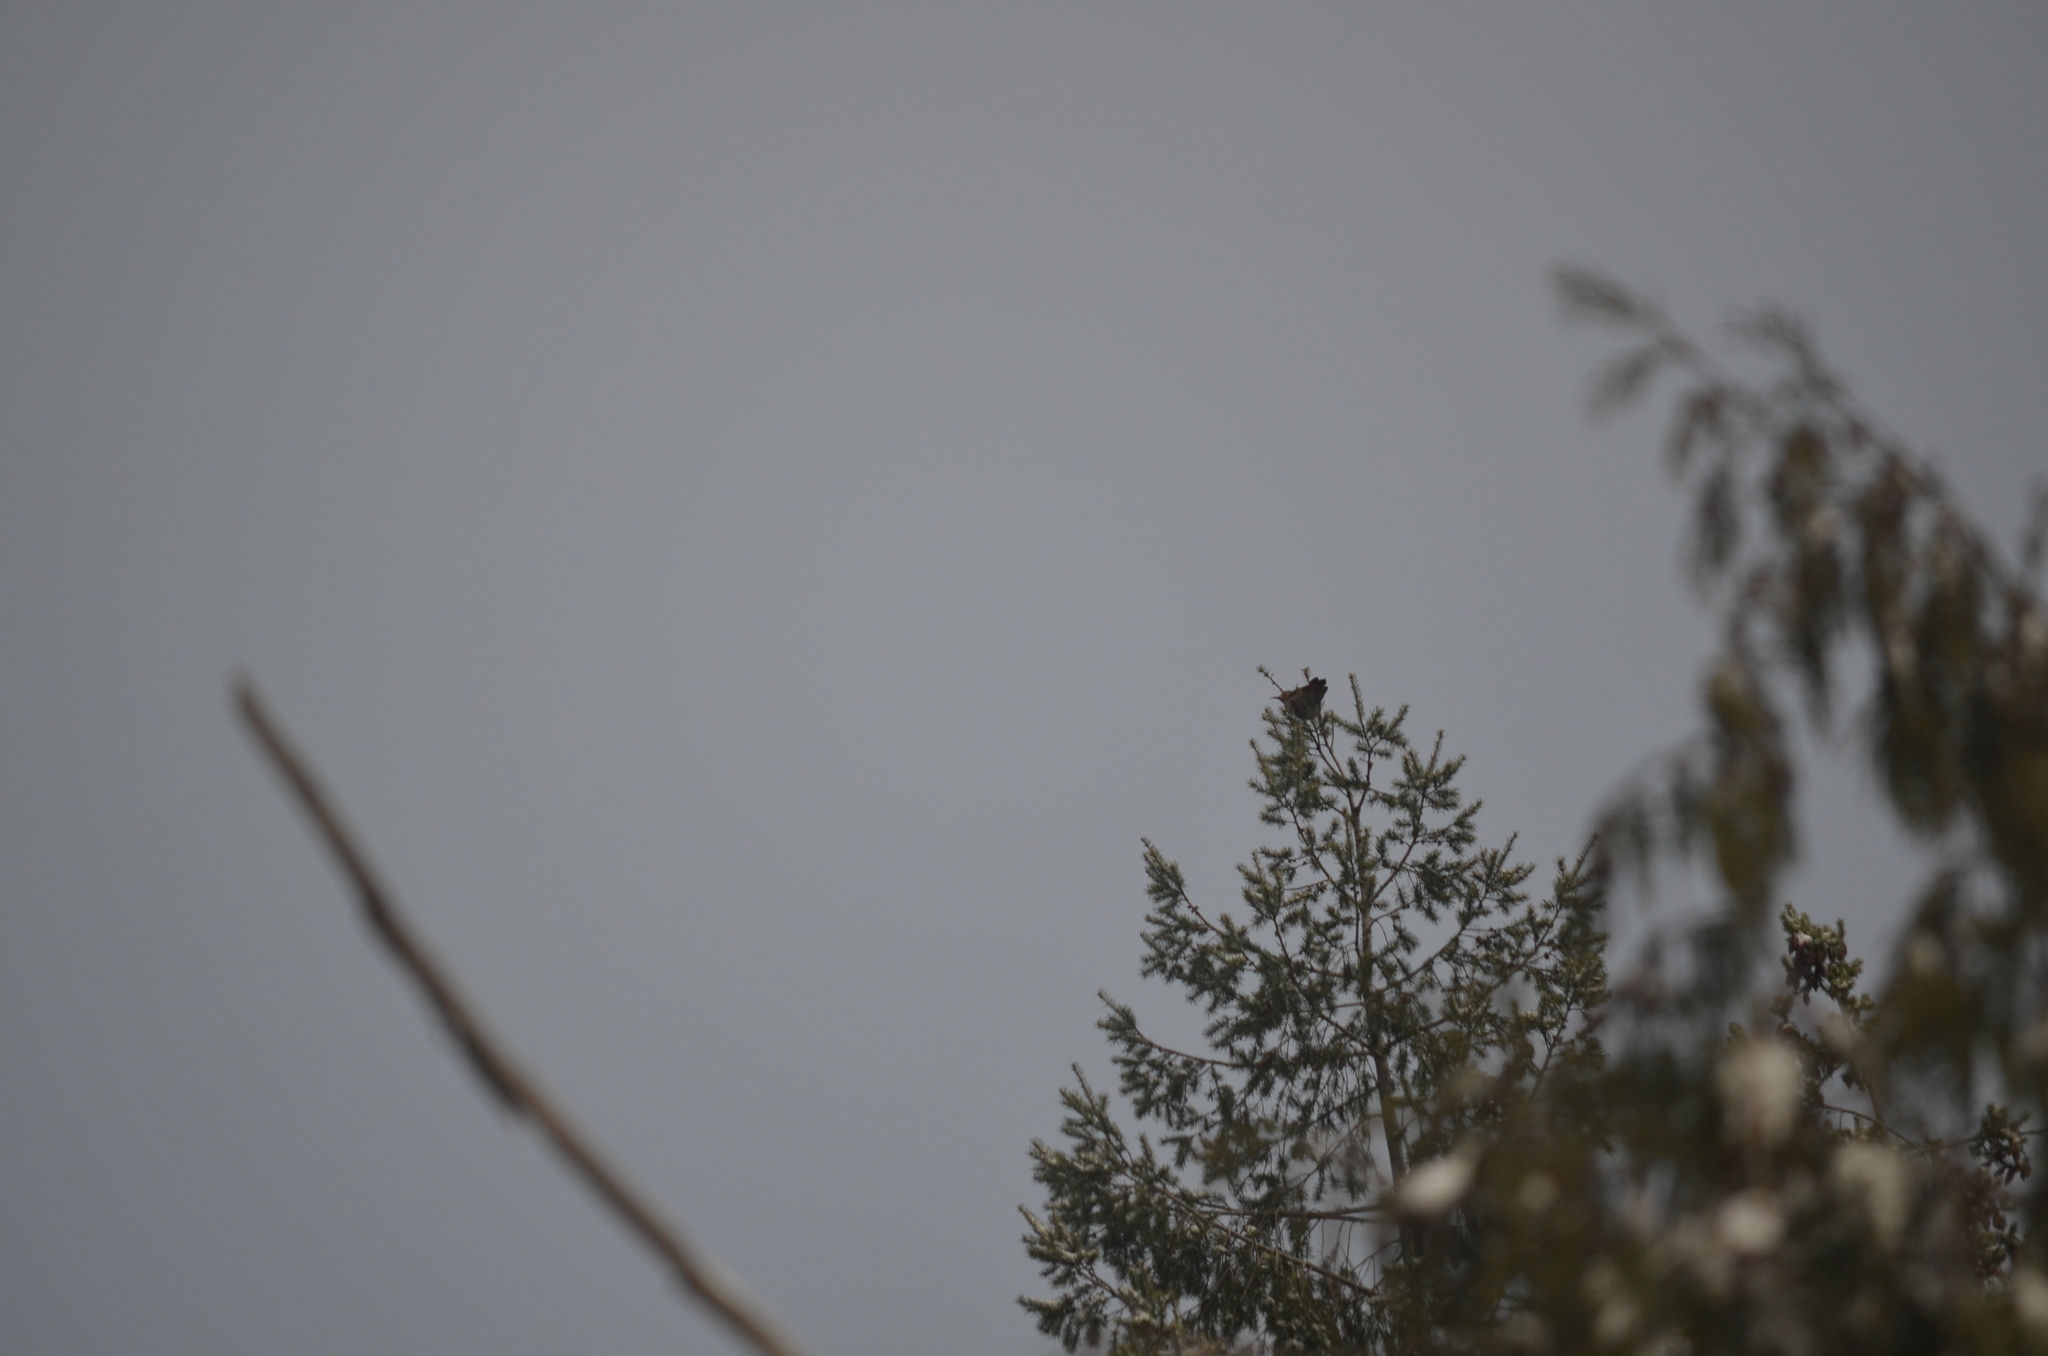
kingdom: Animalia
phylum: Chordata
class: Aves
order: Piciformes
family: Picidae
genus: Colaptes
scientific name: Colaptes auratus
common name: Northern flicker
